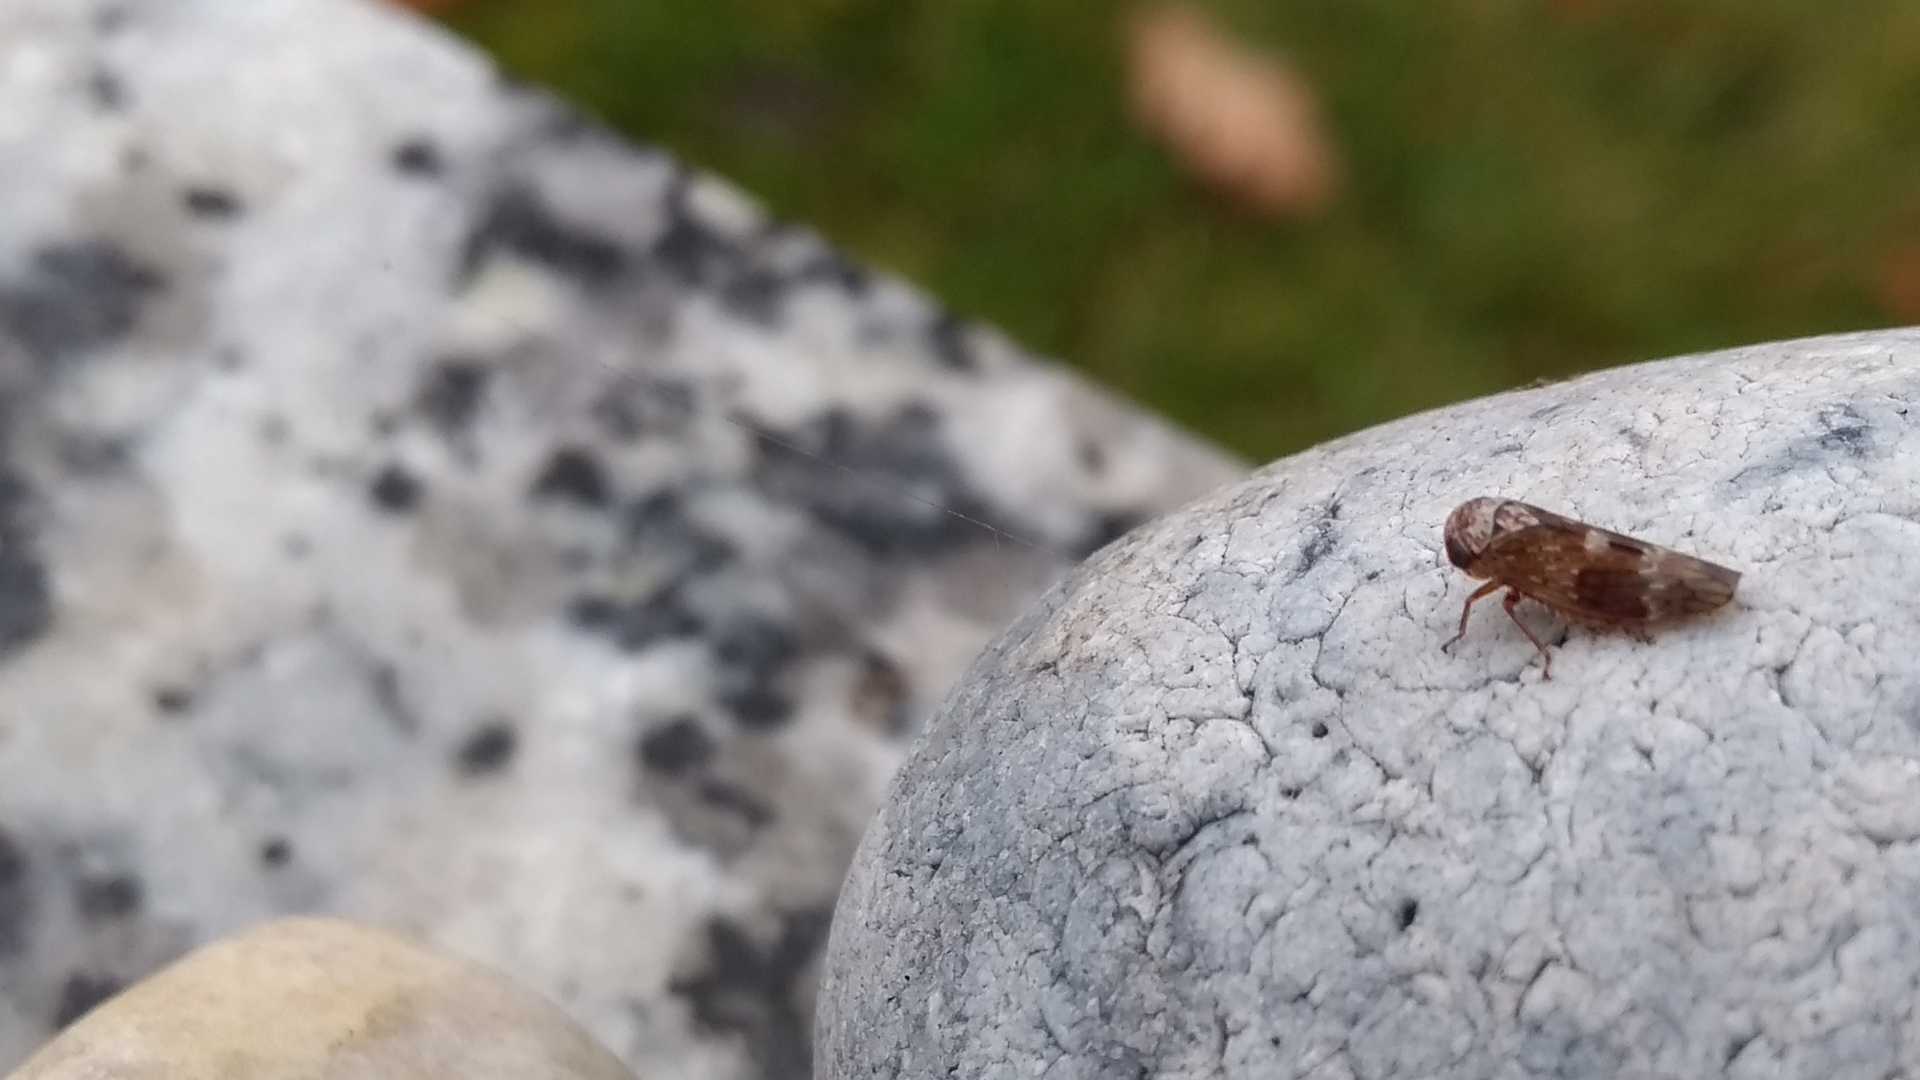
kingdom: Animalia
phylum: Arthropoda
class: Insecta
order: Hemiptera
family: Cicadellidae
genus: Acericerus
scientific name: Acericerus ribauti
